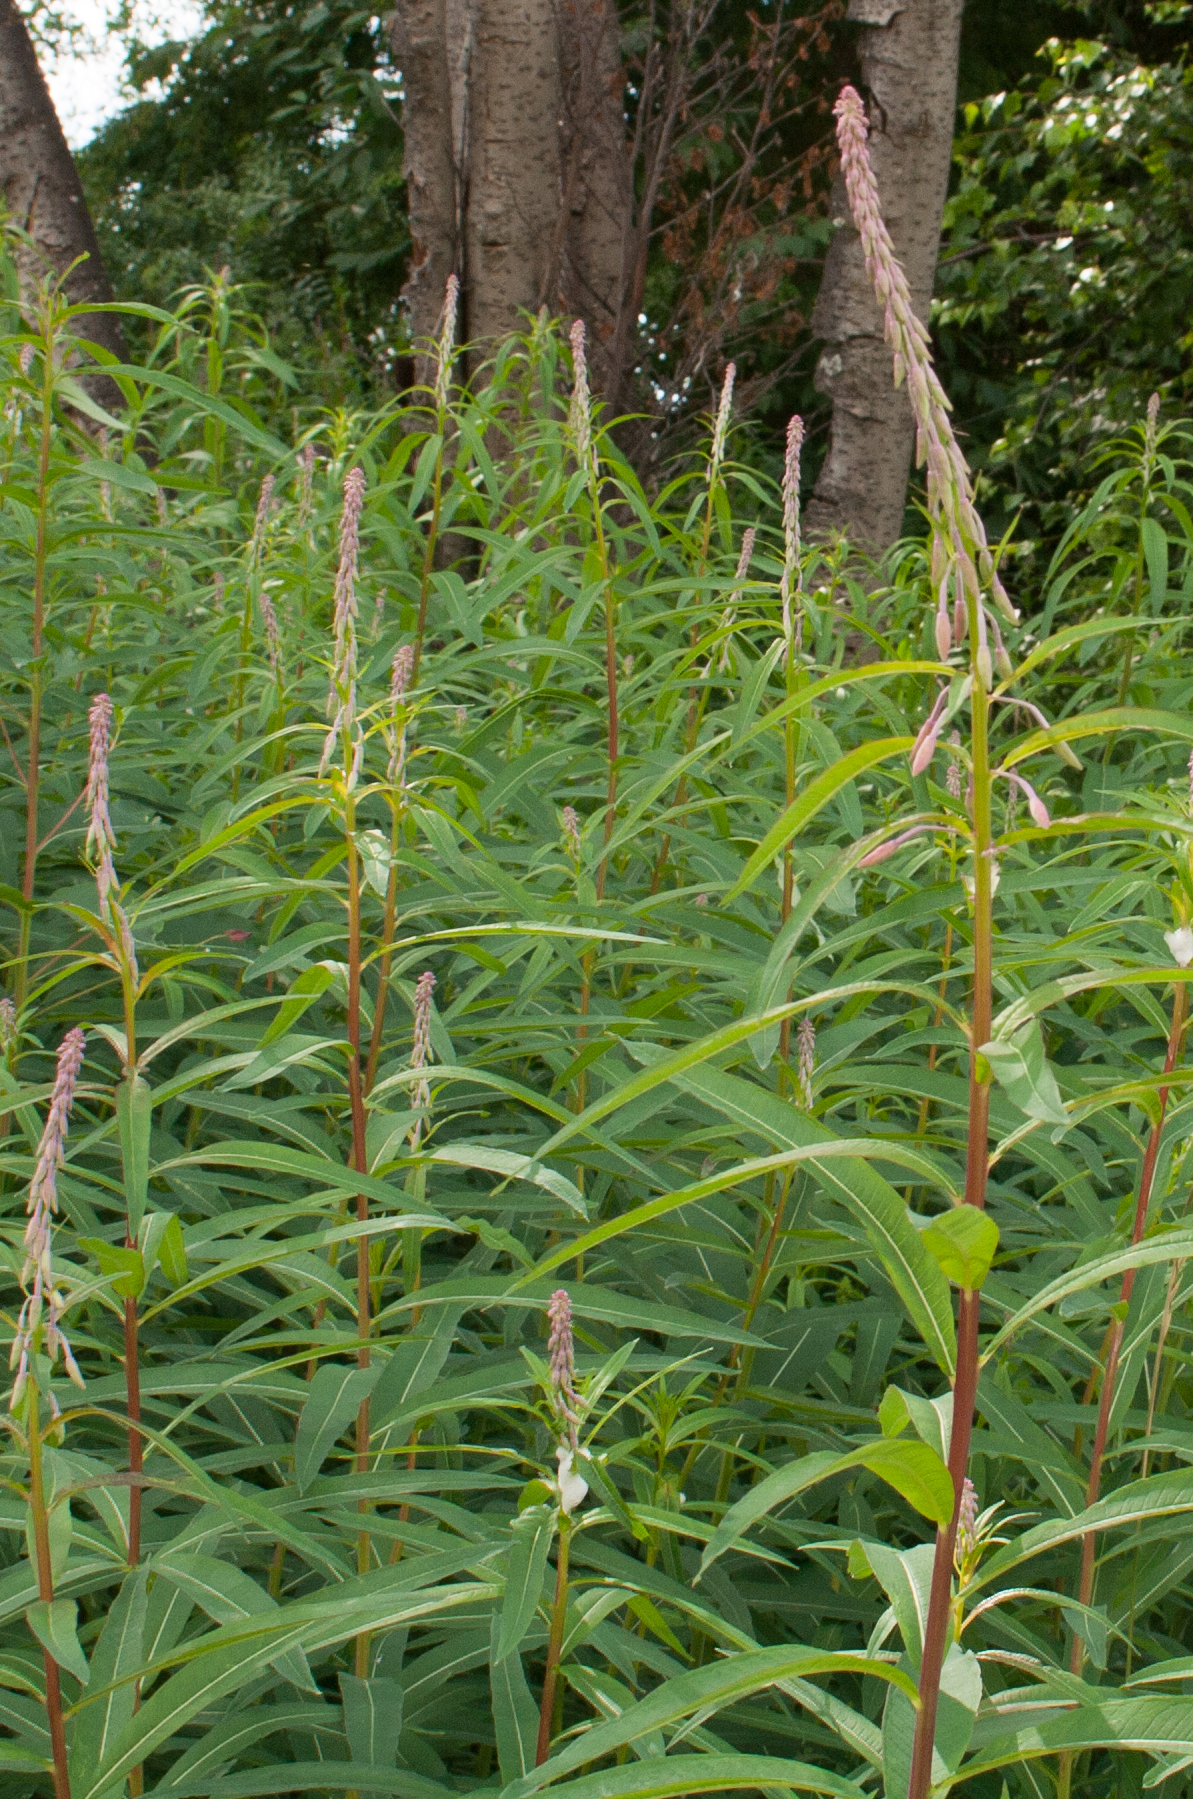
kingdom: Plantae
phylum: Tracheophyta
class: Magnoliopsida
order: Myrtales
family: Onagraceae
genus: Chamaenerion
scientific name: Chamaenerion angustifolium
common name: Fireweed
